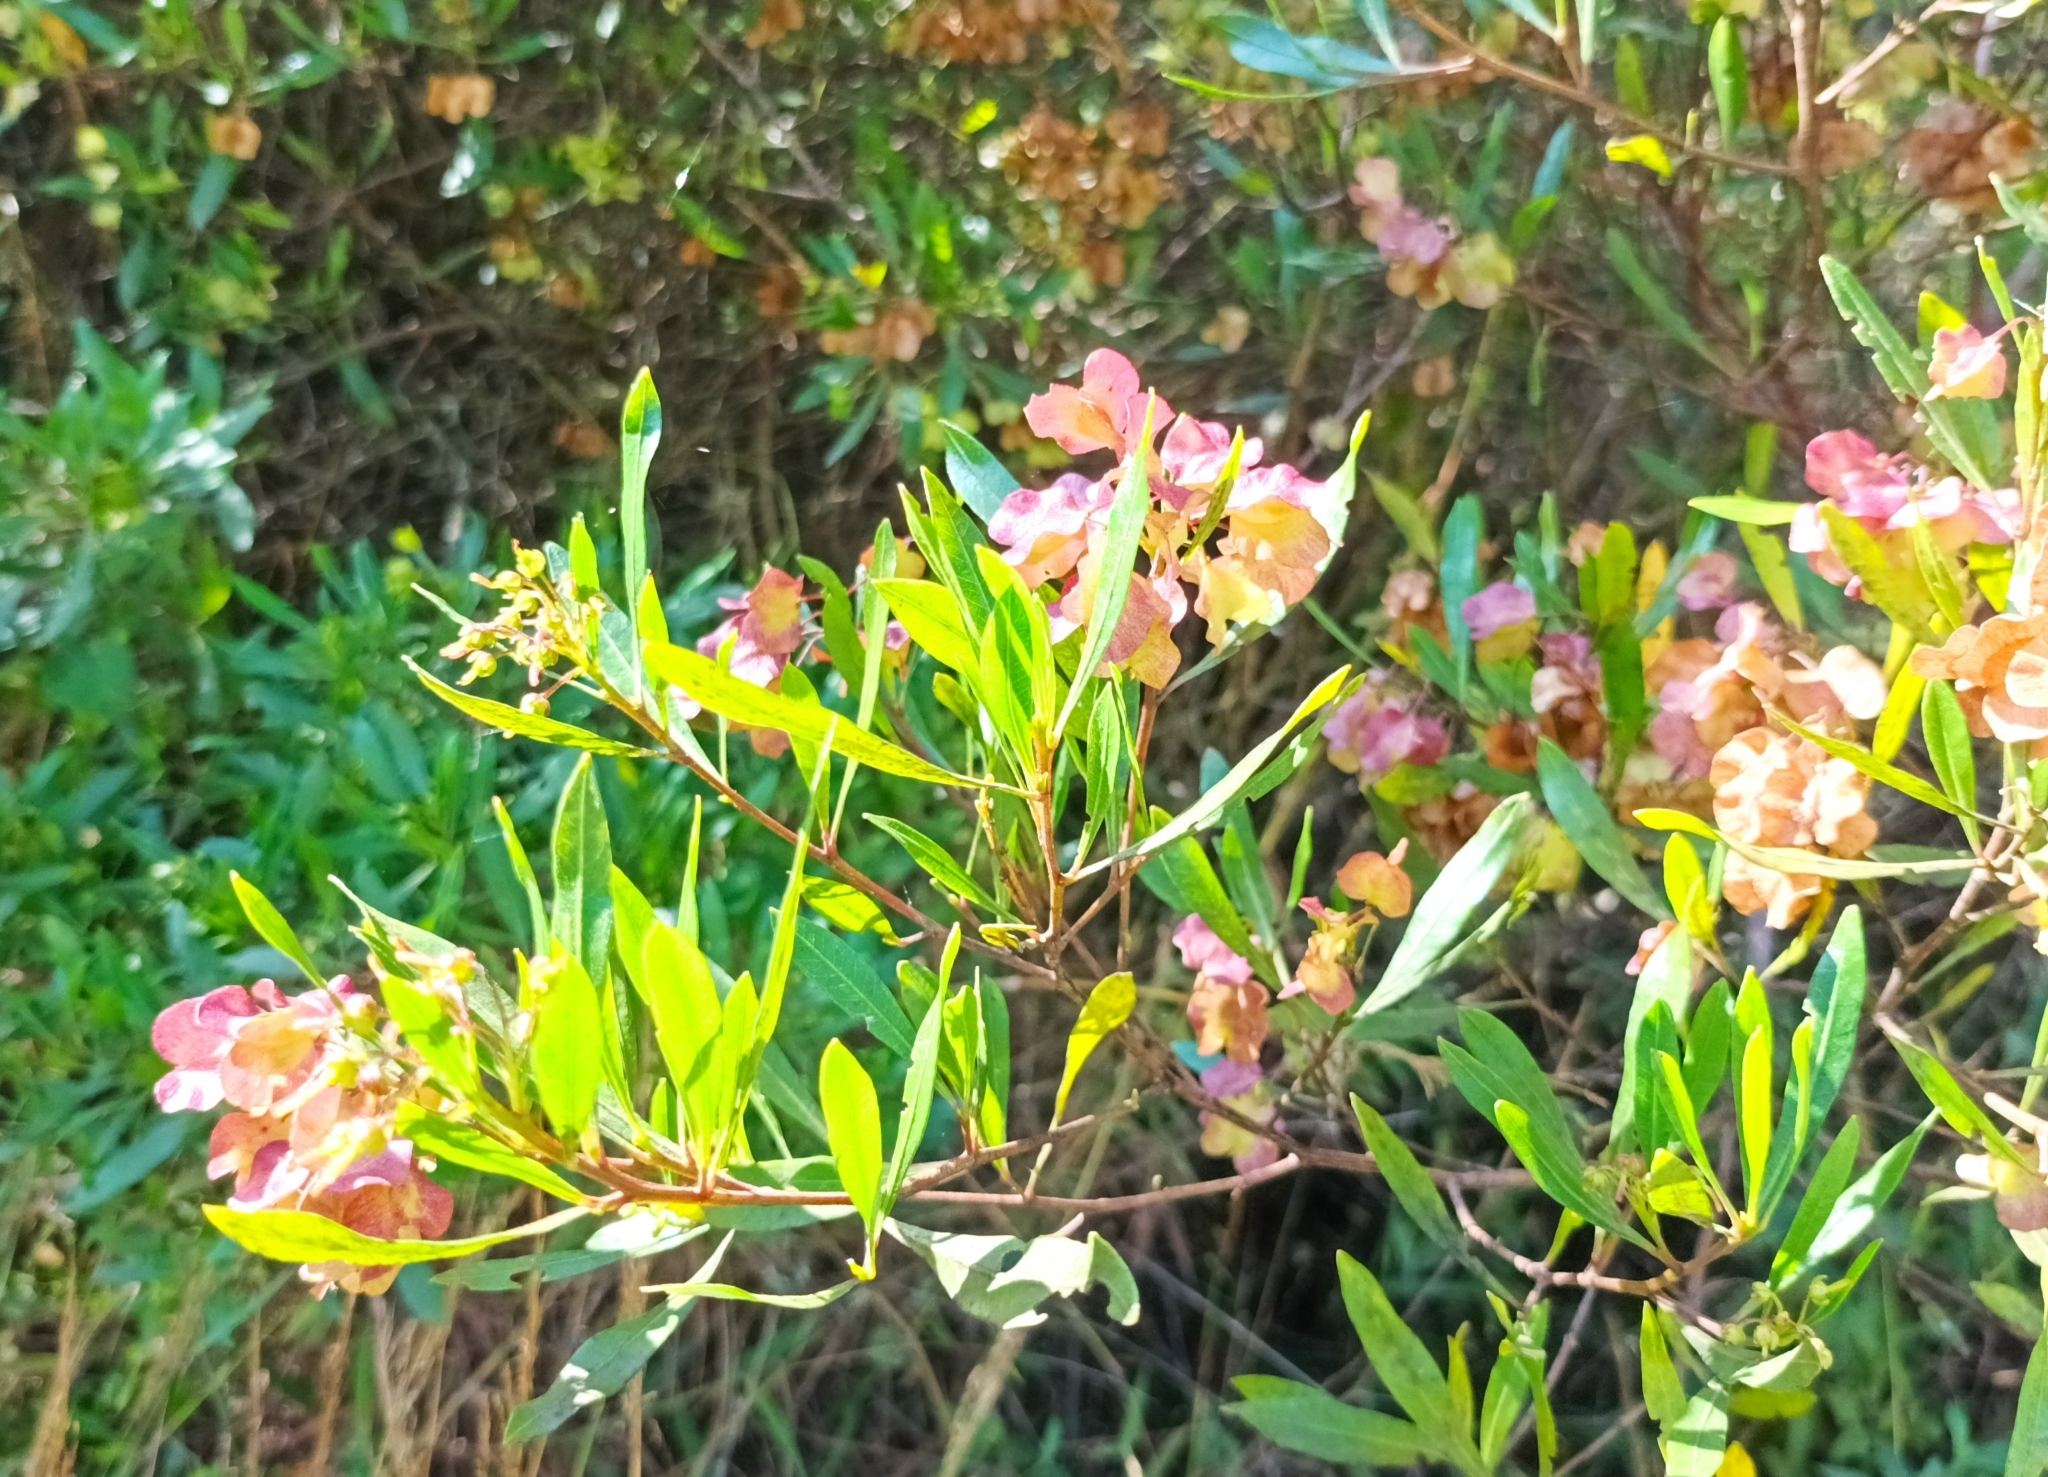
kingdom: Plantae
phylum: Tracheophyta
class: Magnoliopsida
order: Sapindales
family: Sapindaceae
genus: Dodonaea
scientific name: Dodonaea viscosa
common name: Hopbush
